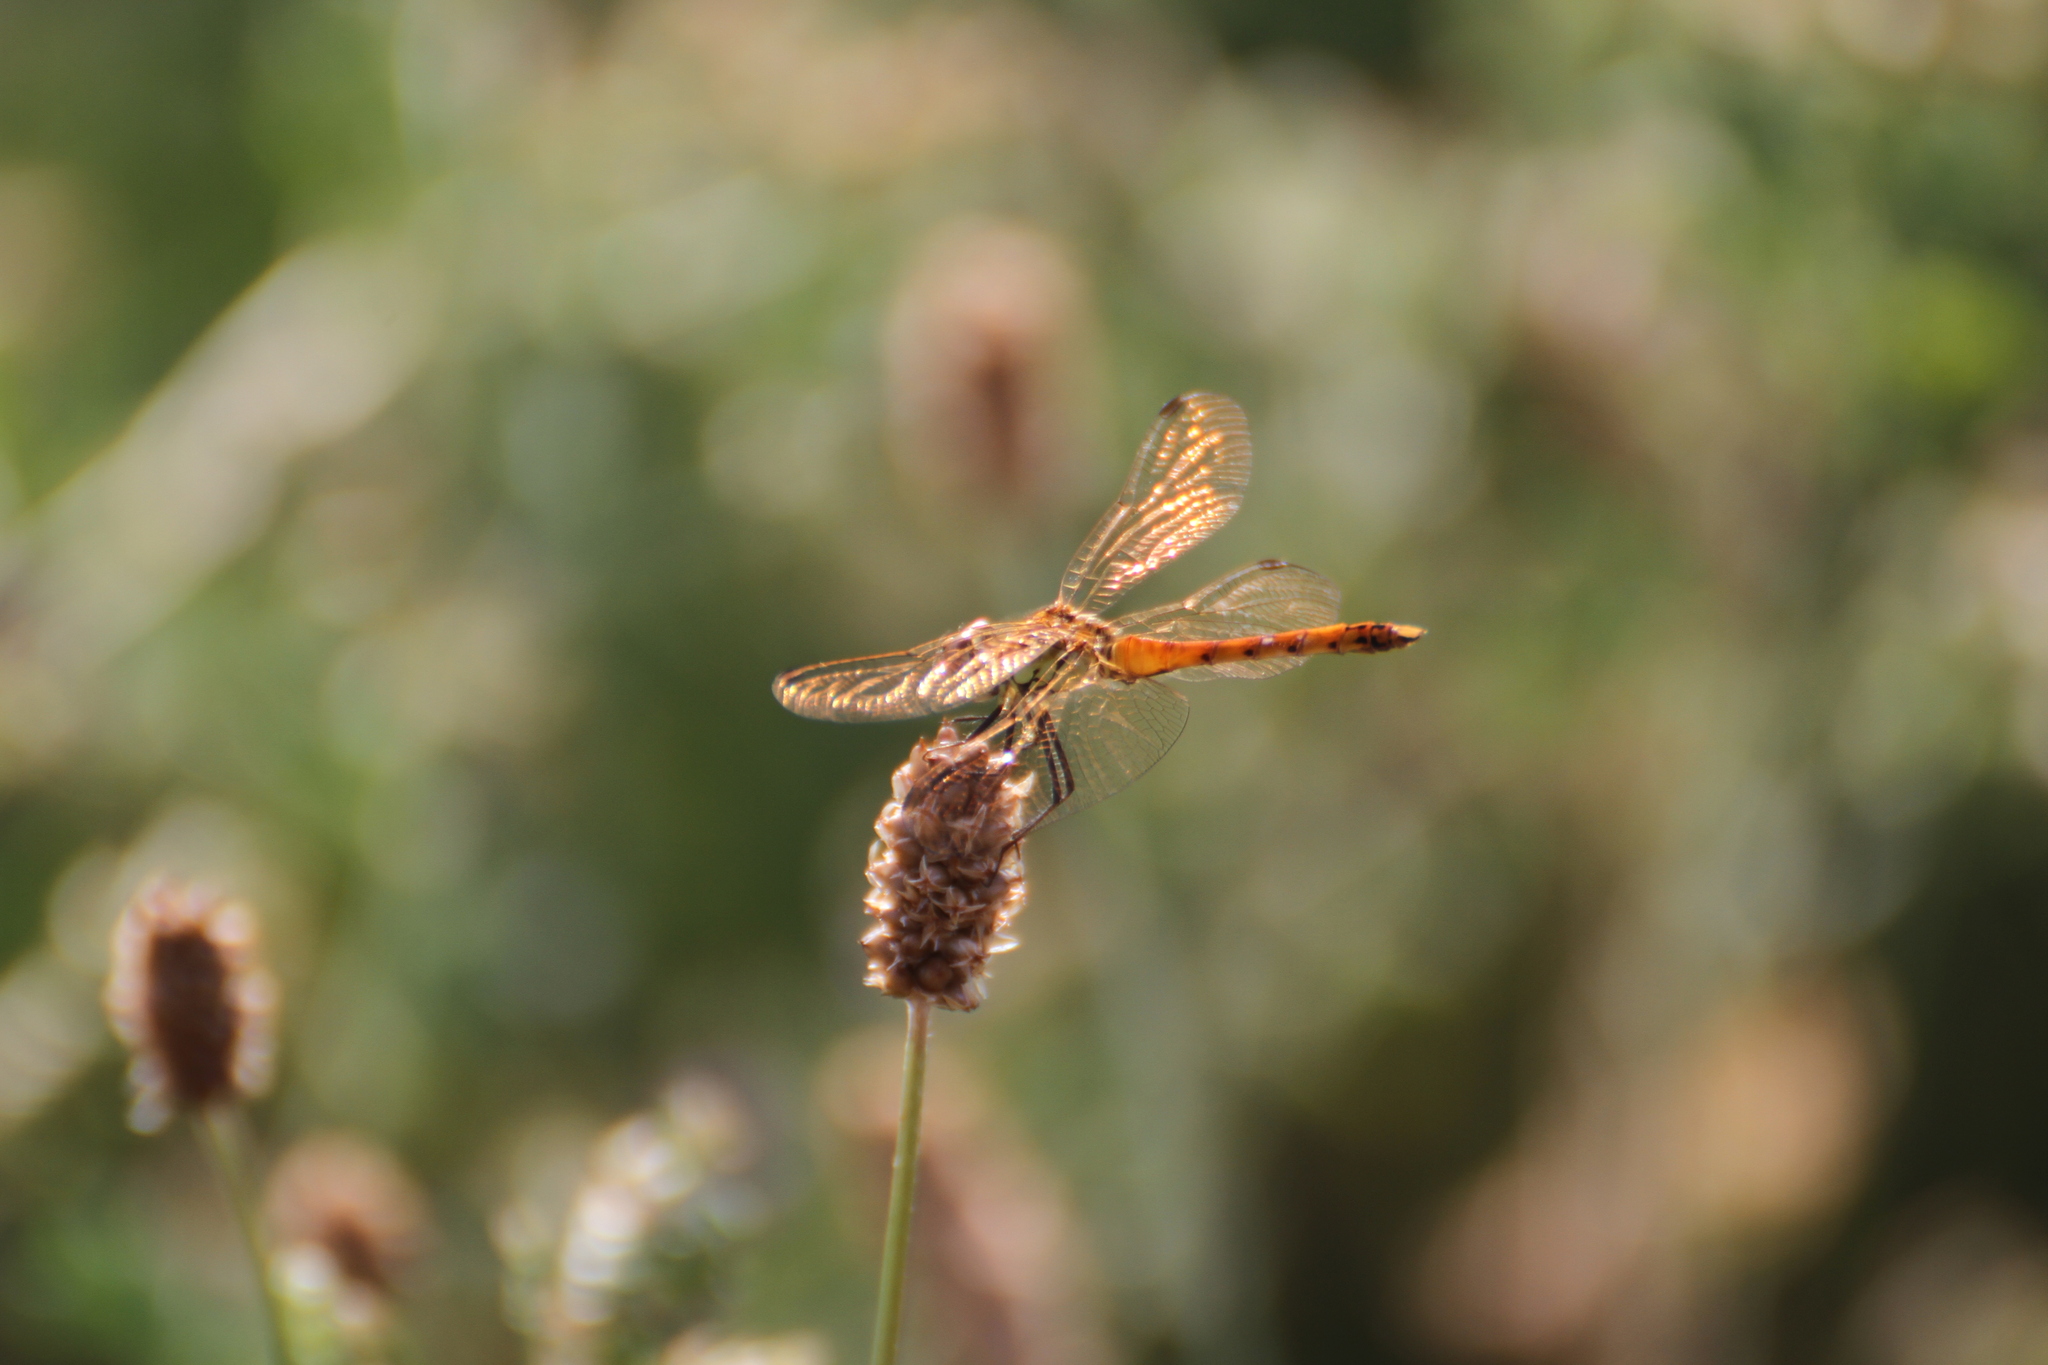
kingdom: Animalia
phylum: Arthropoda
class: Insecta
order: Odonata
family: Libellulidae
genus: Sympetrum
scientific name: Sympetrum depressiusculum
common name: Spotted darter
